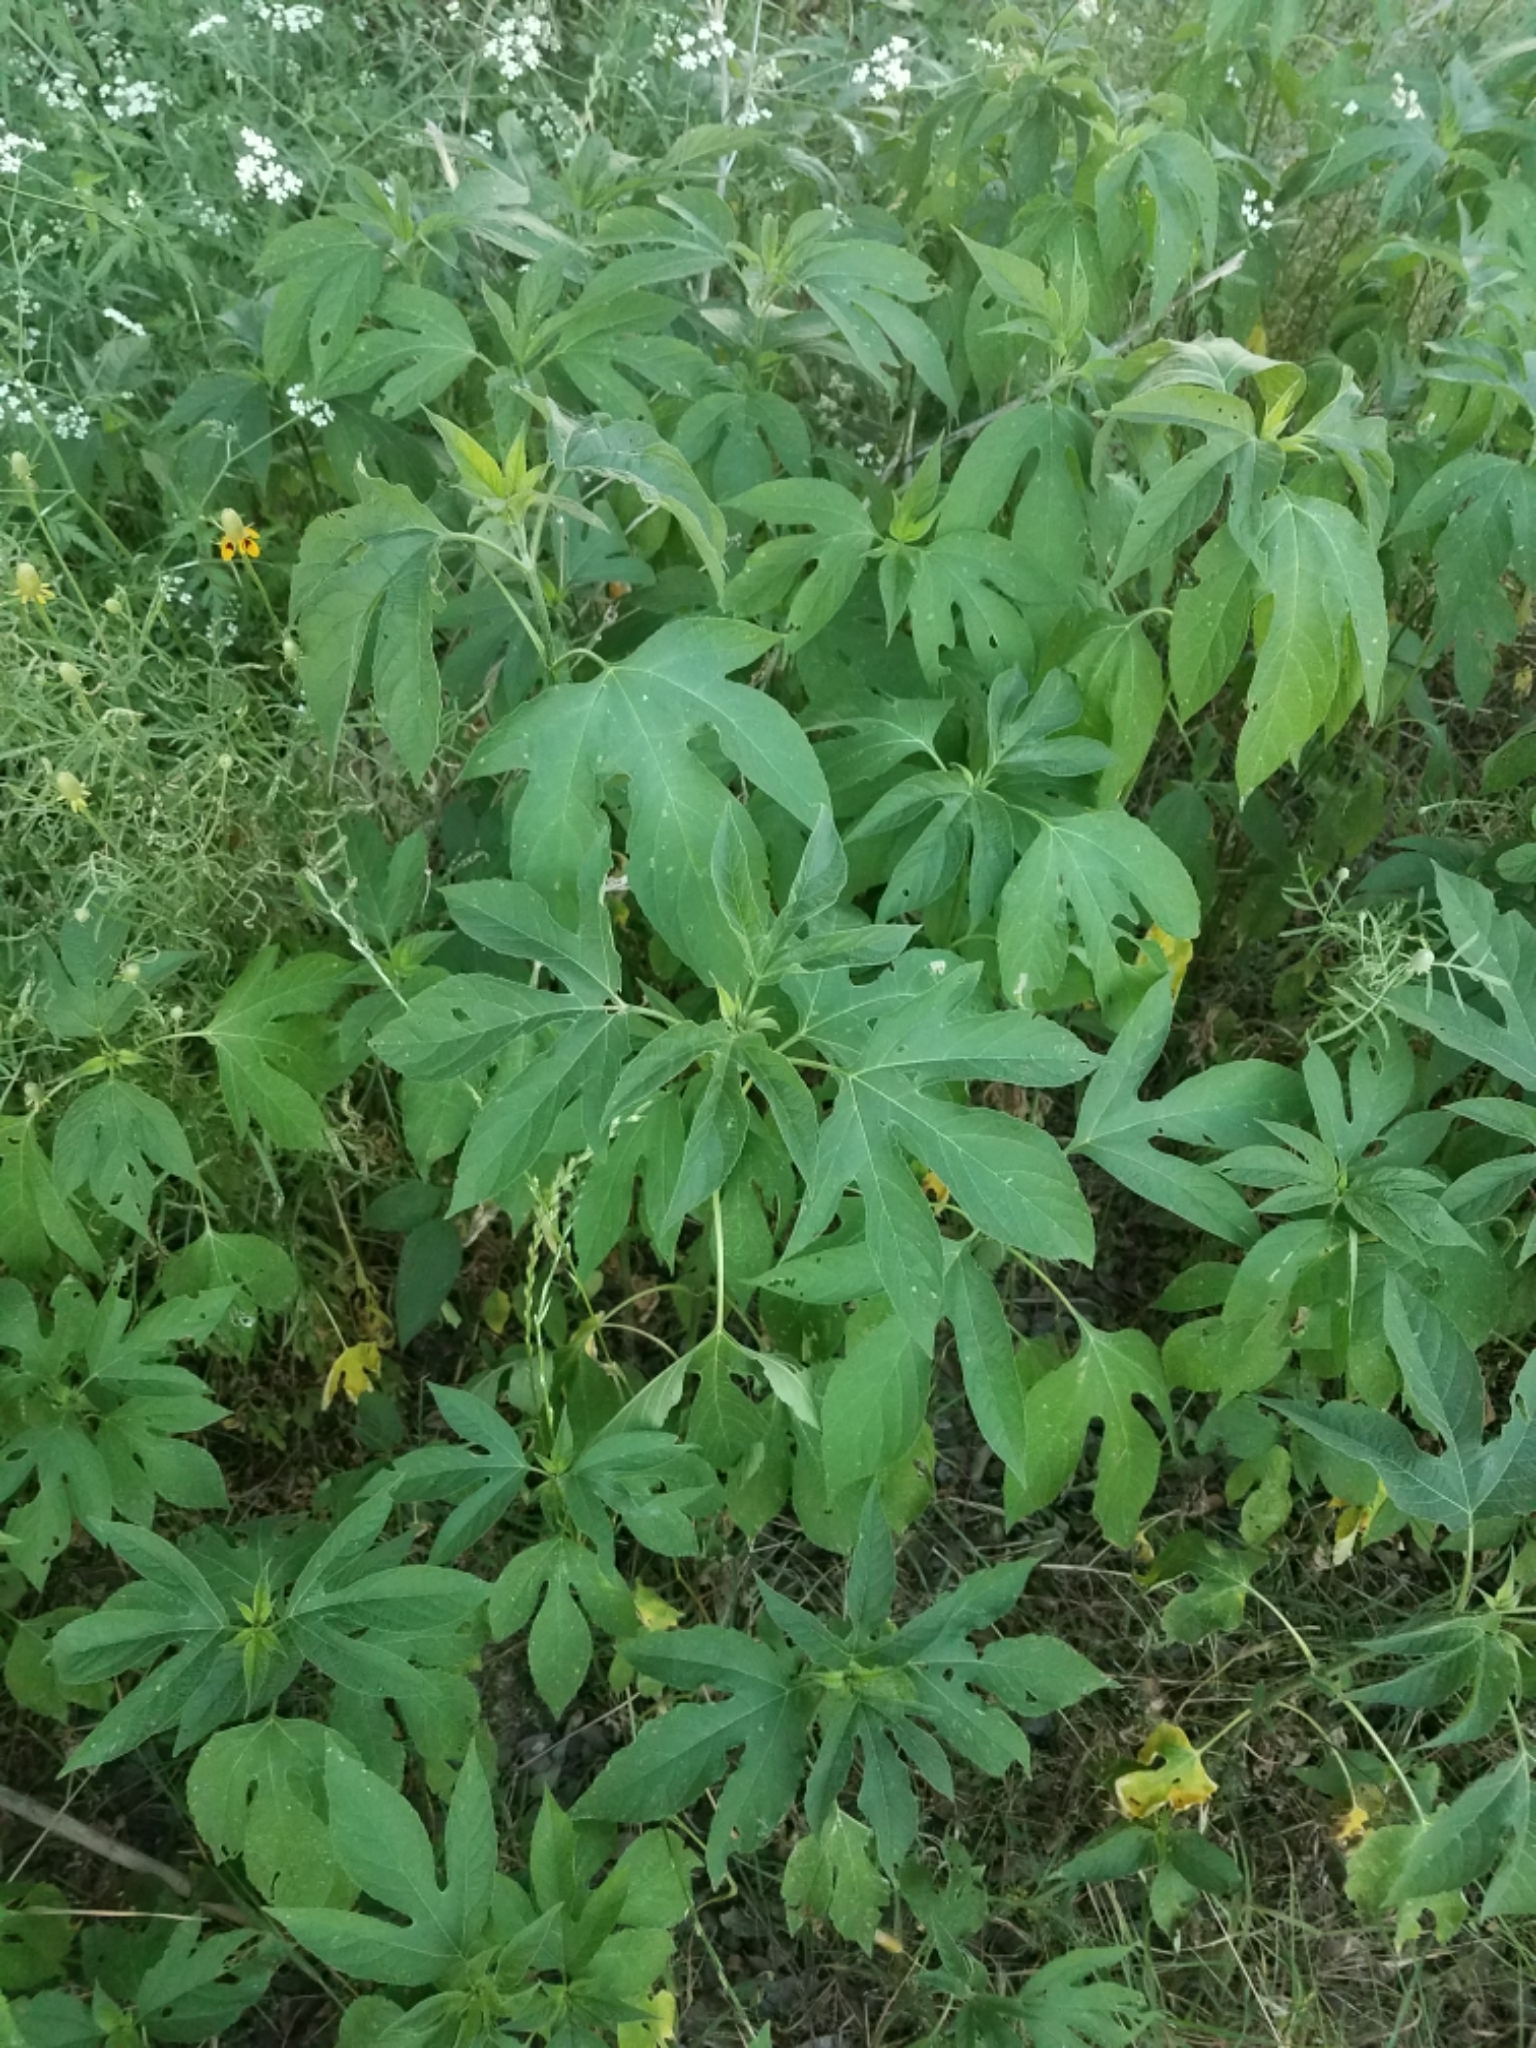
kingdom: Plantae
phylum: Tracheophyta
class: Magnoliopsida
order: Asterales
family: Asteraceae
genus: Ambrosia
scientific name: Ambrosia trifida
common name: Giant ragweed
